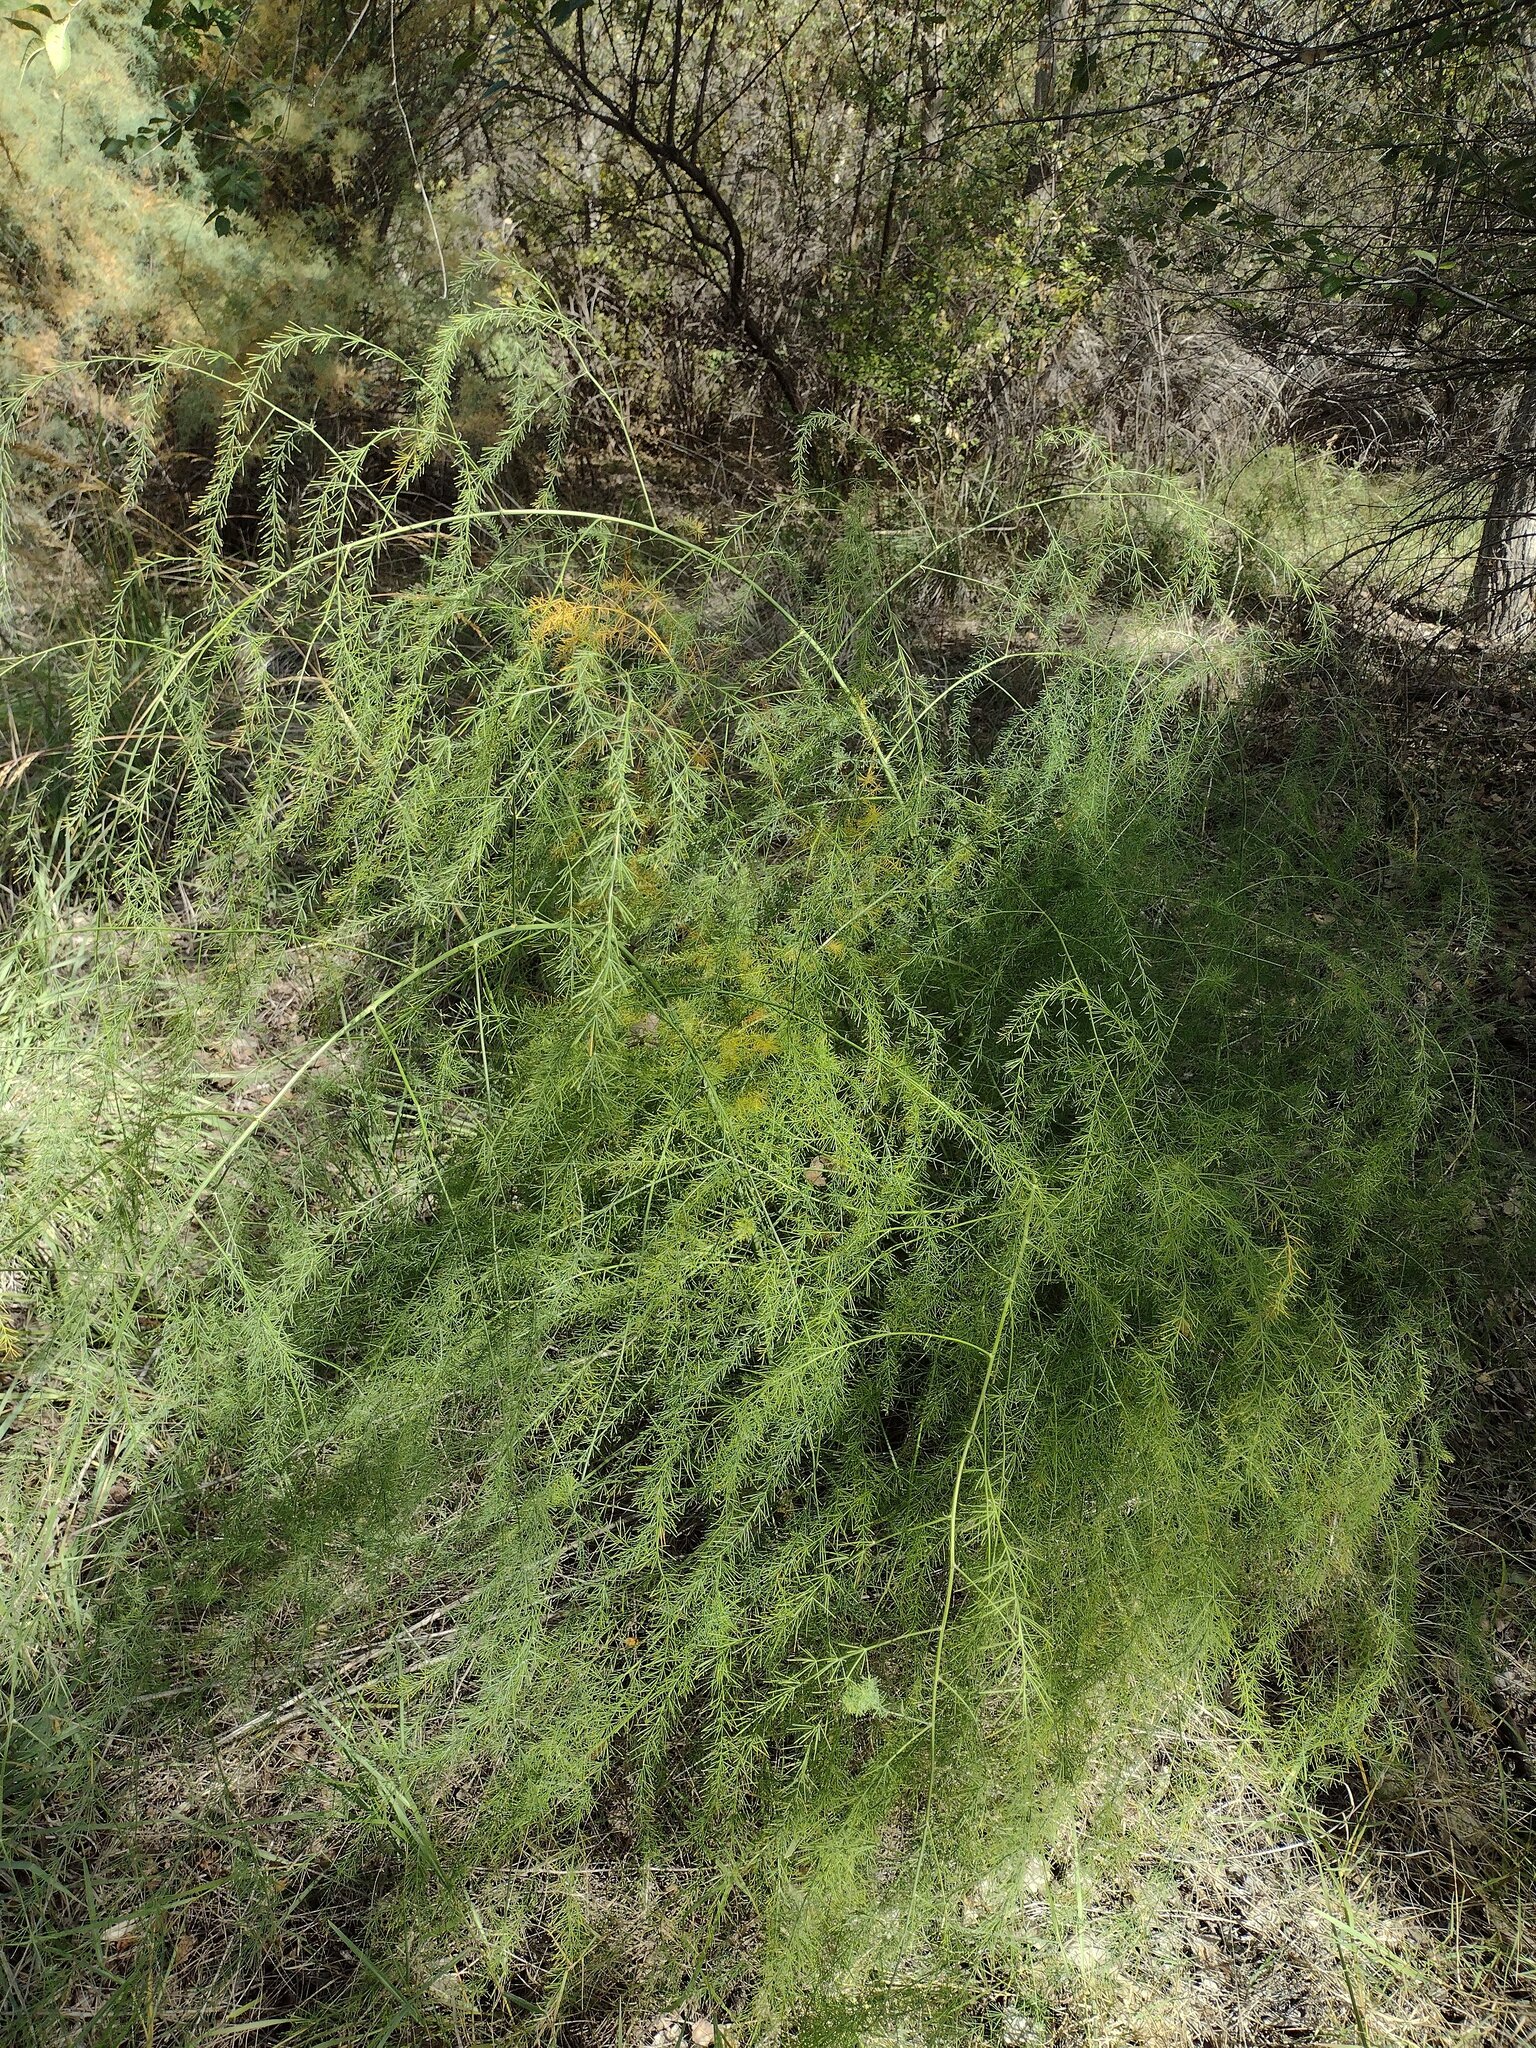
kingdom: Plantae
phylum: Tracheophyta
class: Liliopsida
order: Asparagales
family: Asparagaceae
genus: Asparagus
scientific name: Asparagus officinalis
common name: Garden asparagus
